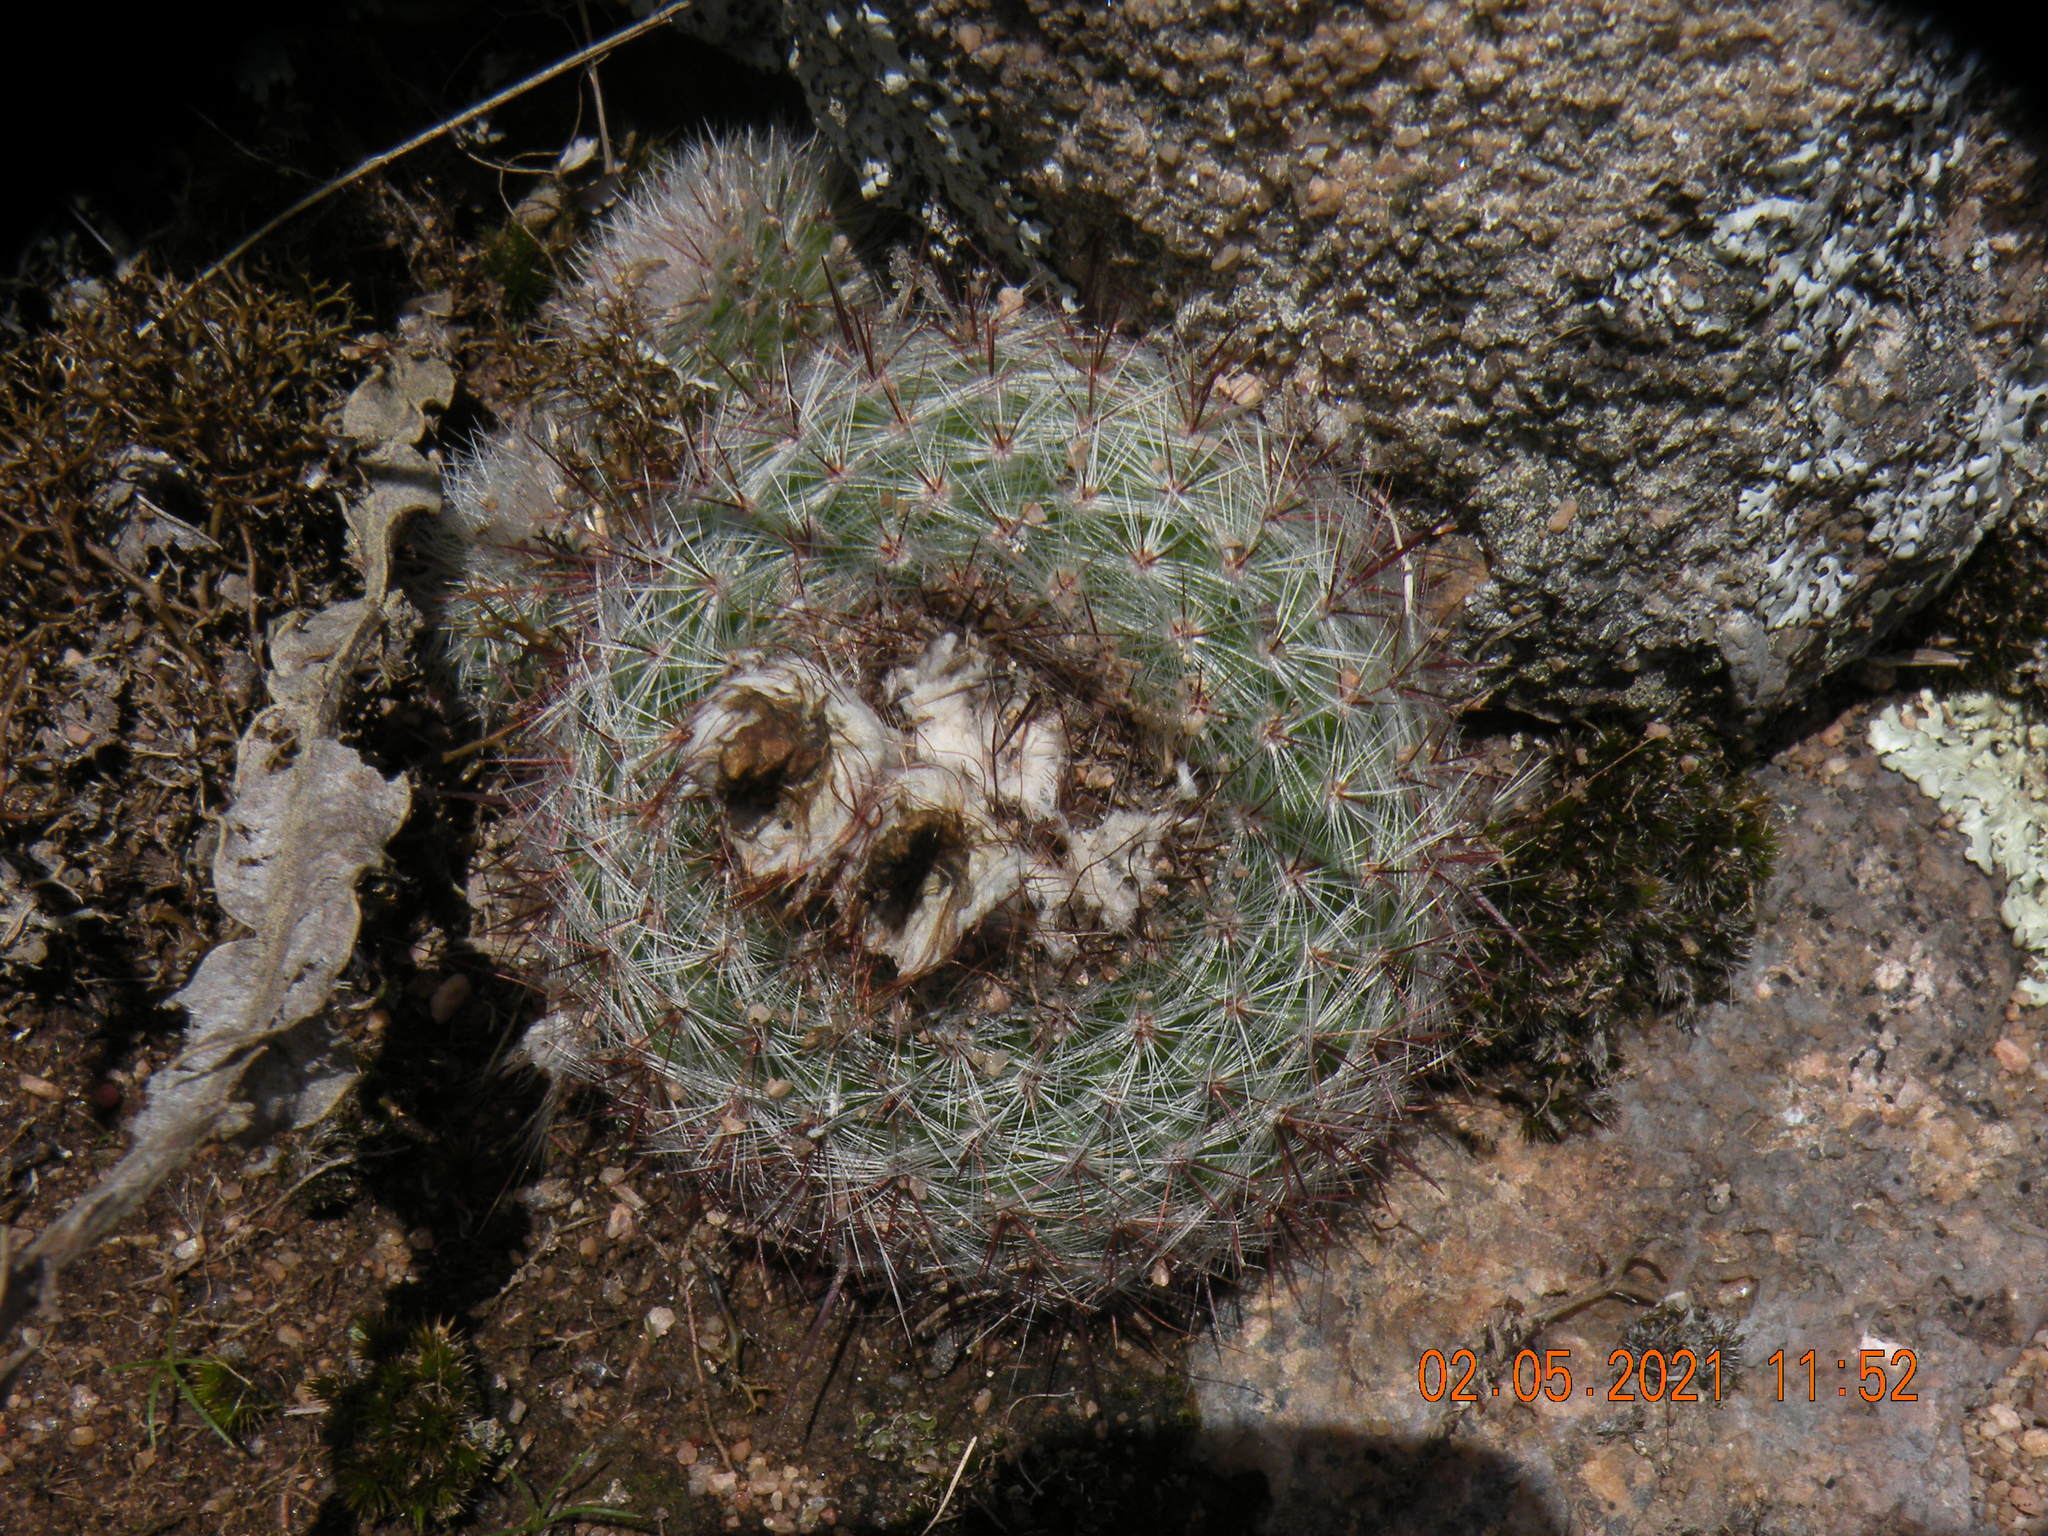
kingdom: Plantae
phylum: Tracheophyta
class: Magnoliopsida
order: Caryophyllales
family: Cactaceae
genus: Parodia
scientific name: Parodia scopa
